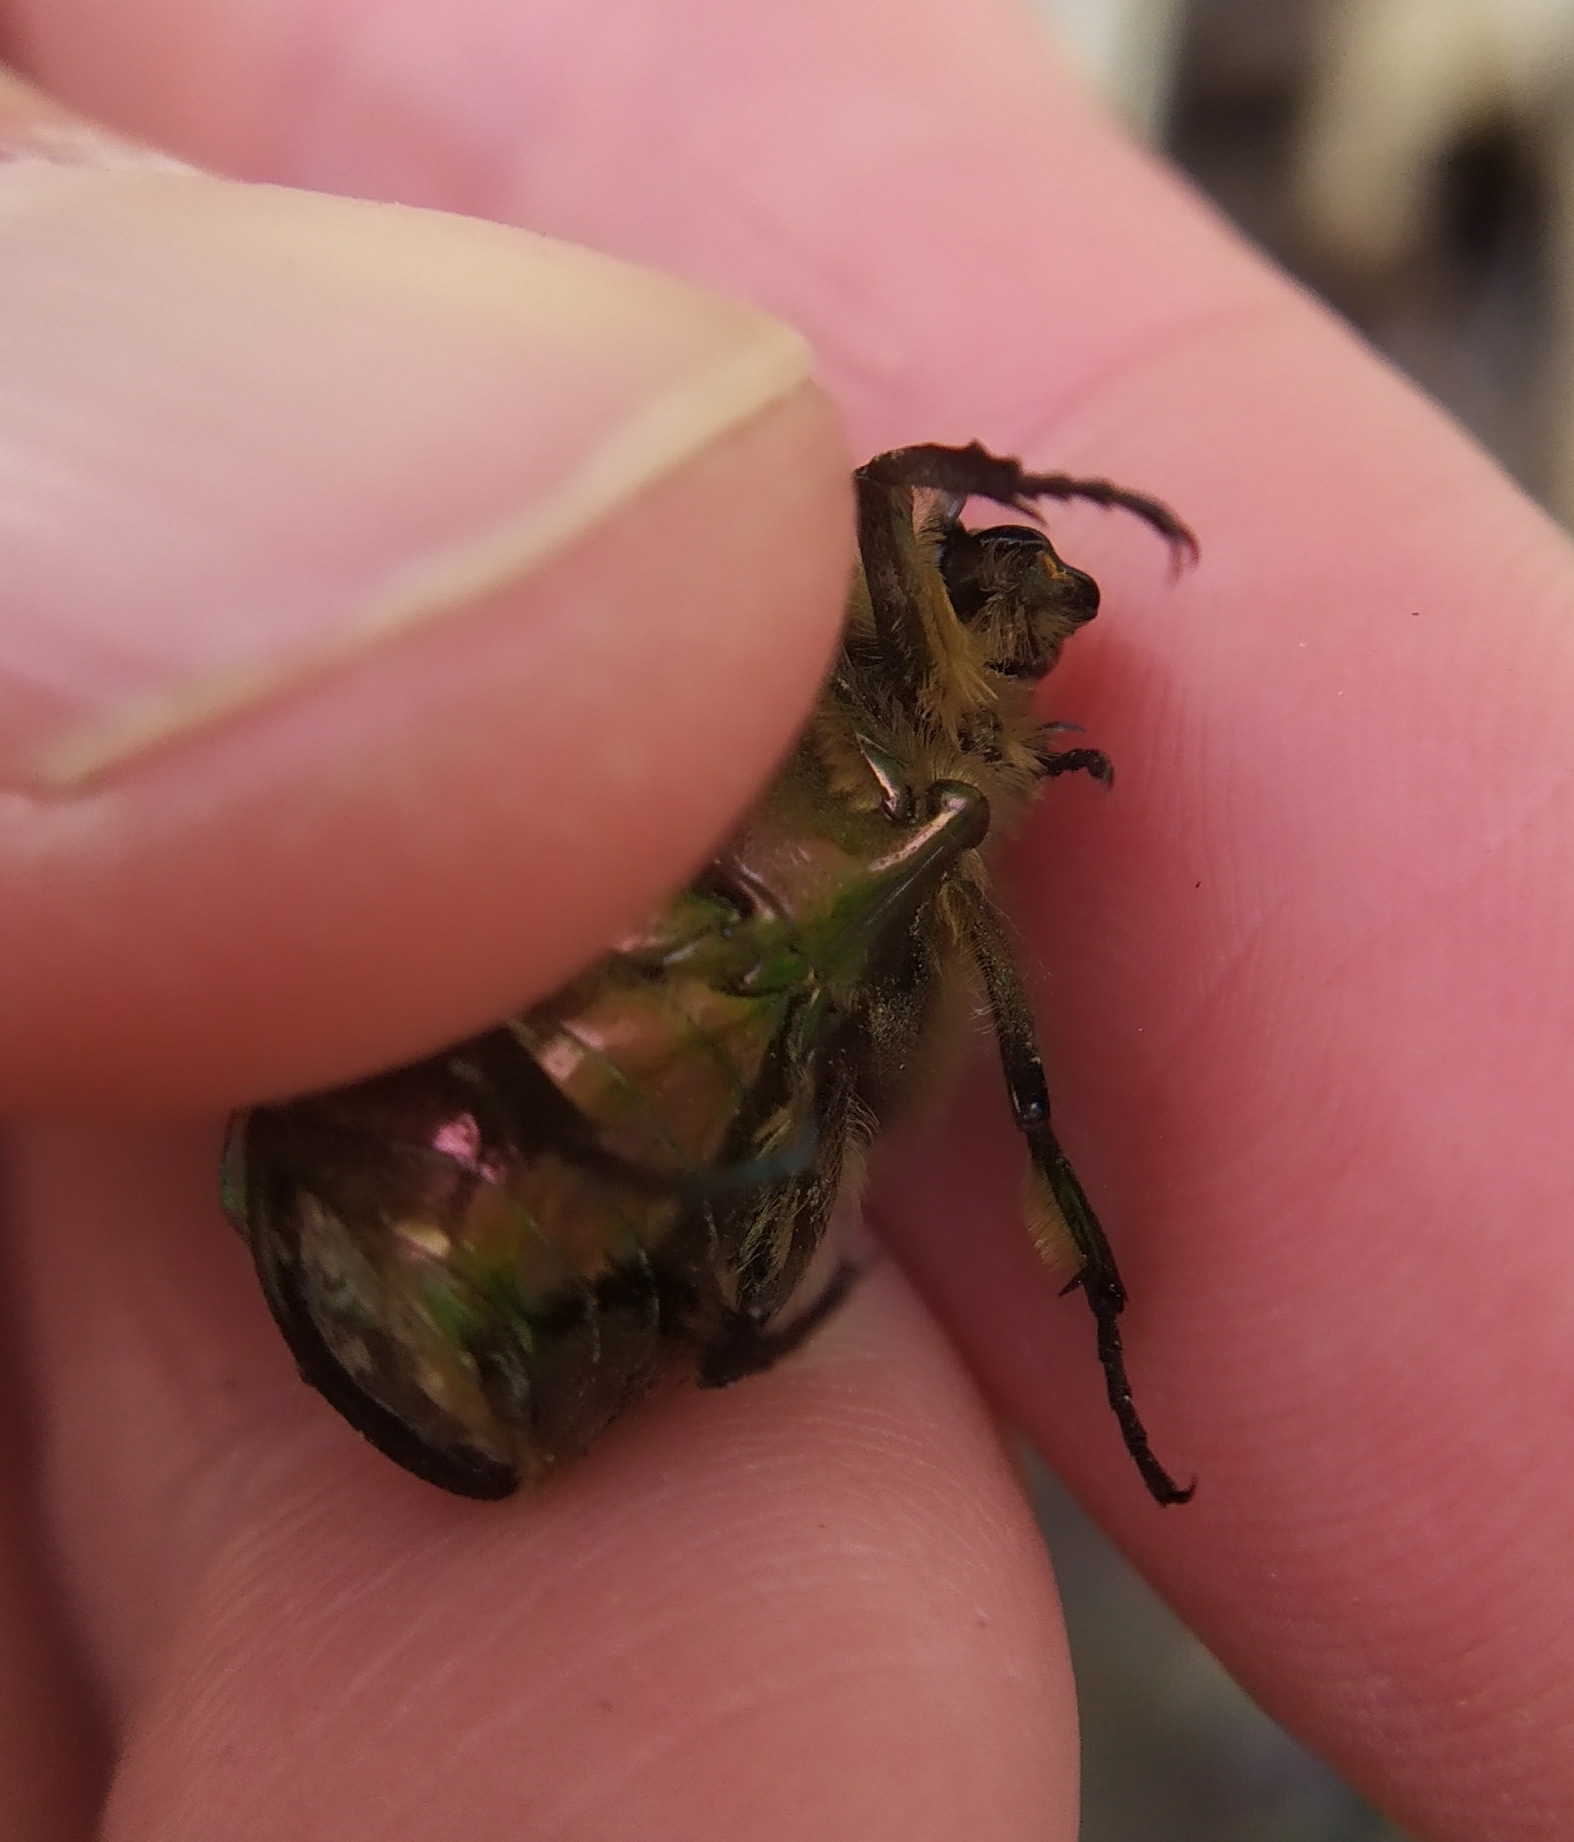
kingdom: Animalia
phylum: Arthropoda
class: Insecta
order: Coleoptera
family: Scarabaeidae
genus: Cetonia
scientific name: Cetonia aurata
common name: Rose chafer
